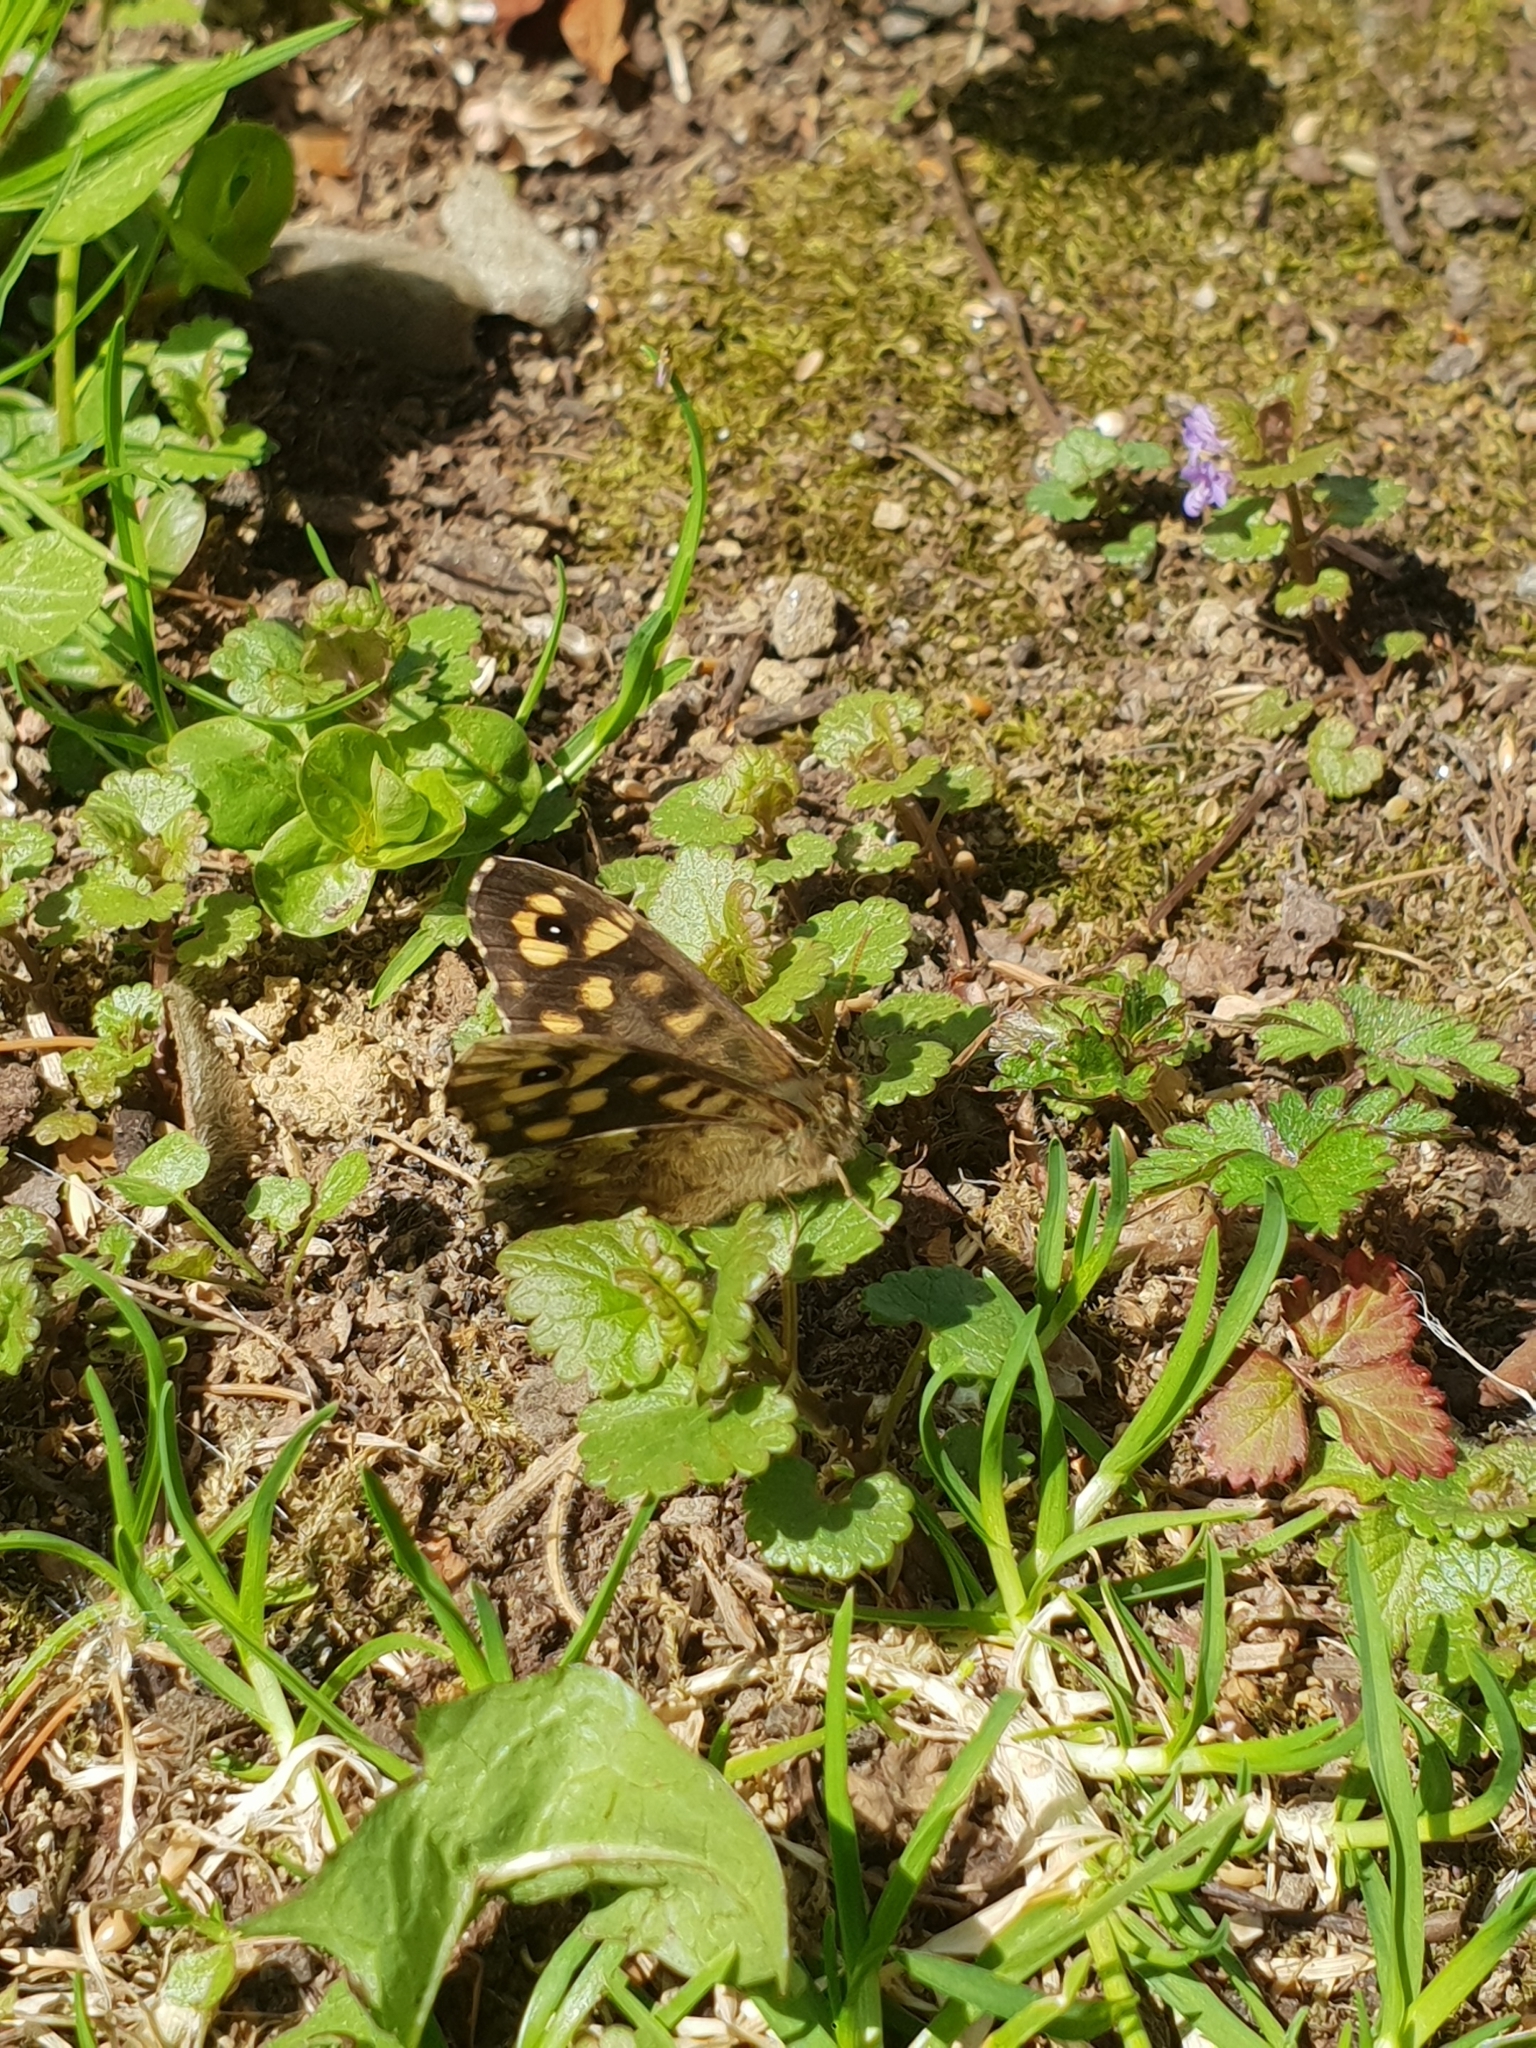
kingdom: Animalia
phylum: Arthropoda
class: Insecta
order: Lepidoptera
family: Nymphalidae
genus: Pararge
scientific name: Pararge aegeria
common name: Speckled wood
